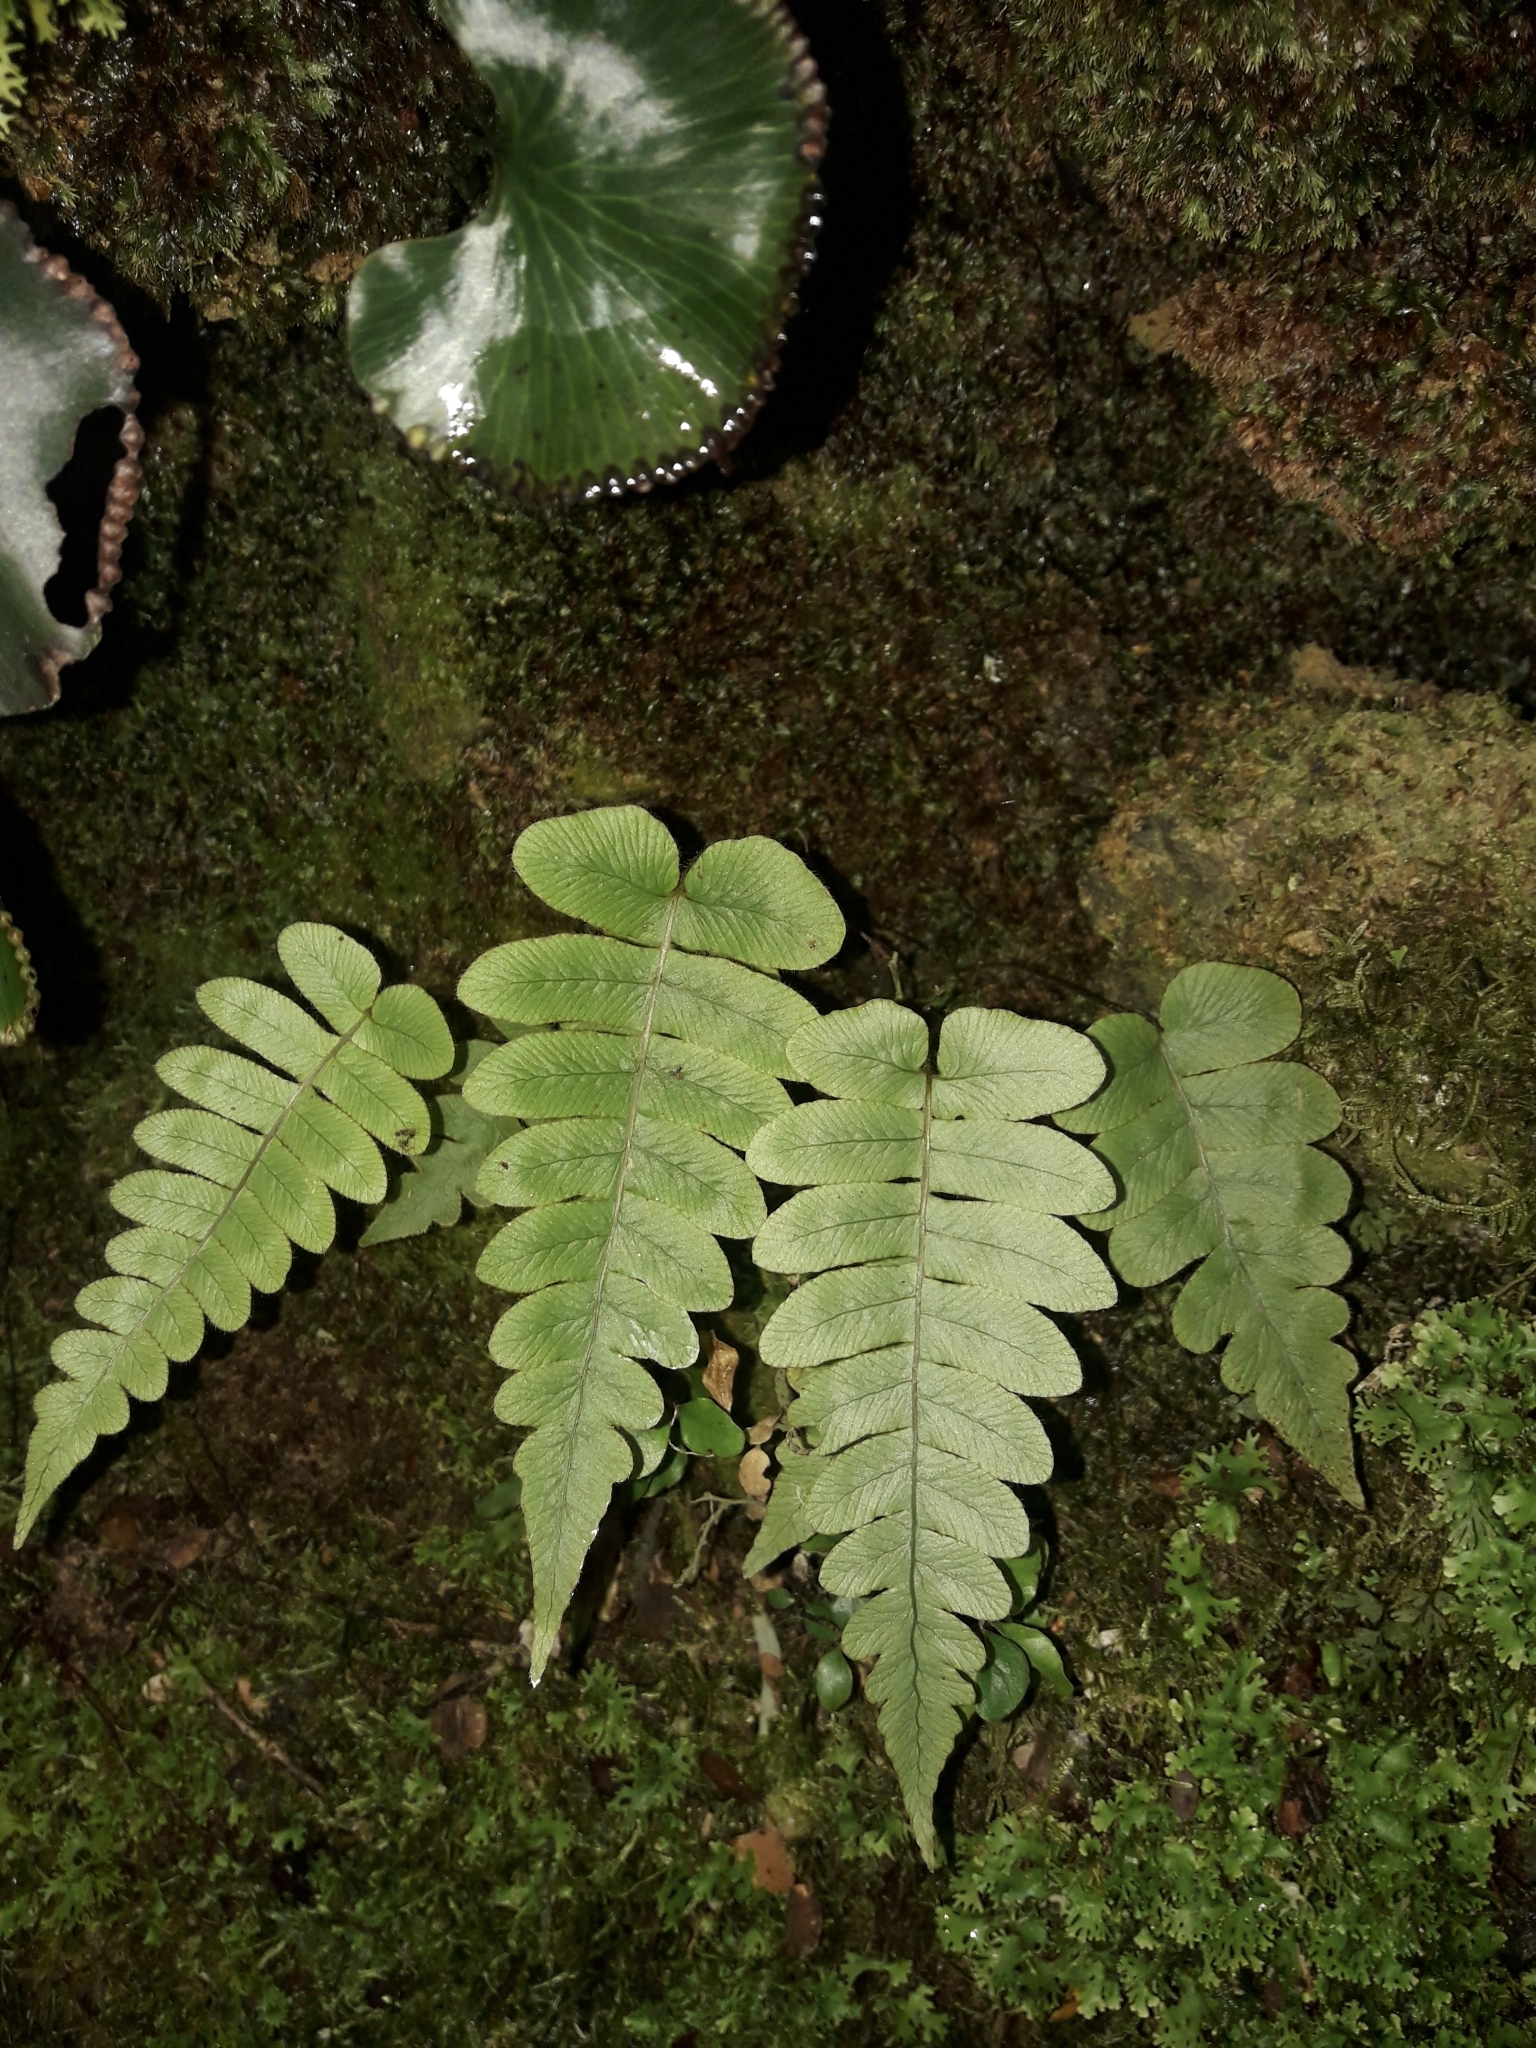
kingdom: Plantae
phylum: Tracheophyta
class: Polypodiopsida
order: Polypodiales
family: Blechnaceae
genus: Cranfillia
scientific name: Cranfillia deltoides
